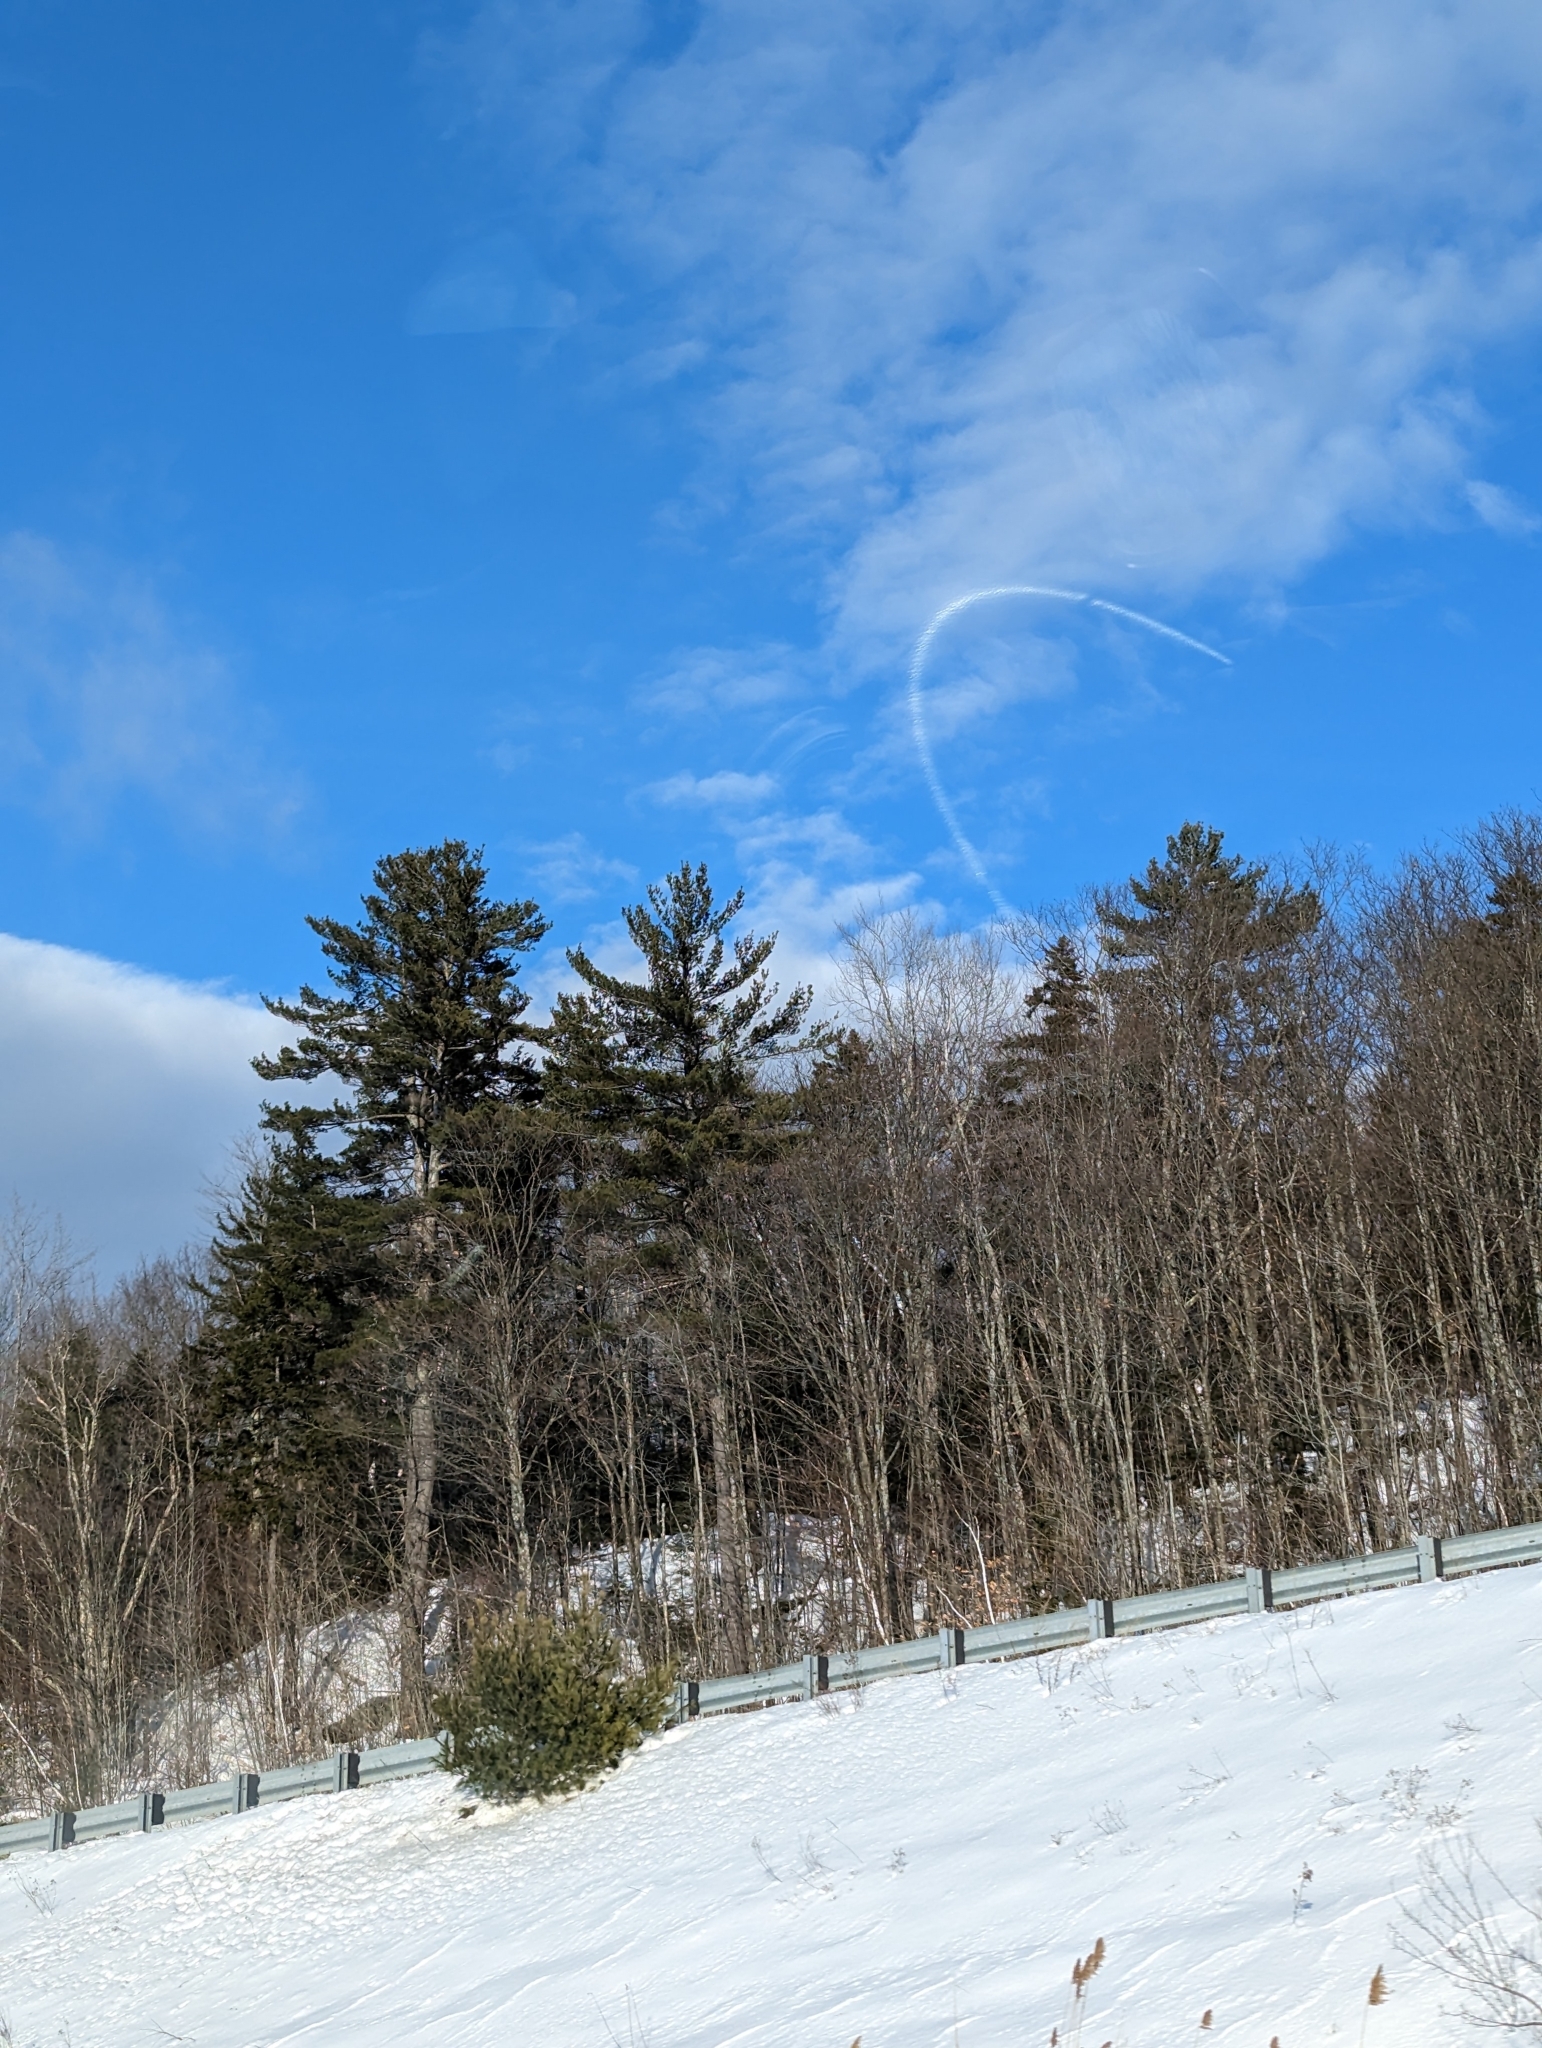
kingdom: Plantae
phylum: Tracheophyta
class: Pinopsida
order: Pinales
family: Pinaceae
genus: Pinus
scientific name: Pinus strobus
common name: Weymouth pine
